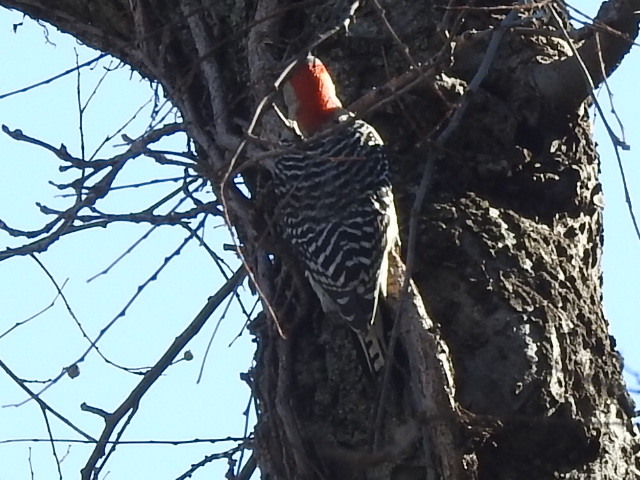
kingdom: Animalia
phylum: Chordata
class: Aves
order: Piciformes
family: Picidae
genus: Melanerpes
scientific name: Melanerpes carolinus
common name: Red-bellied woodpecker
